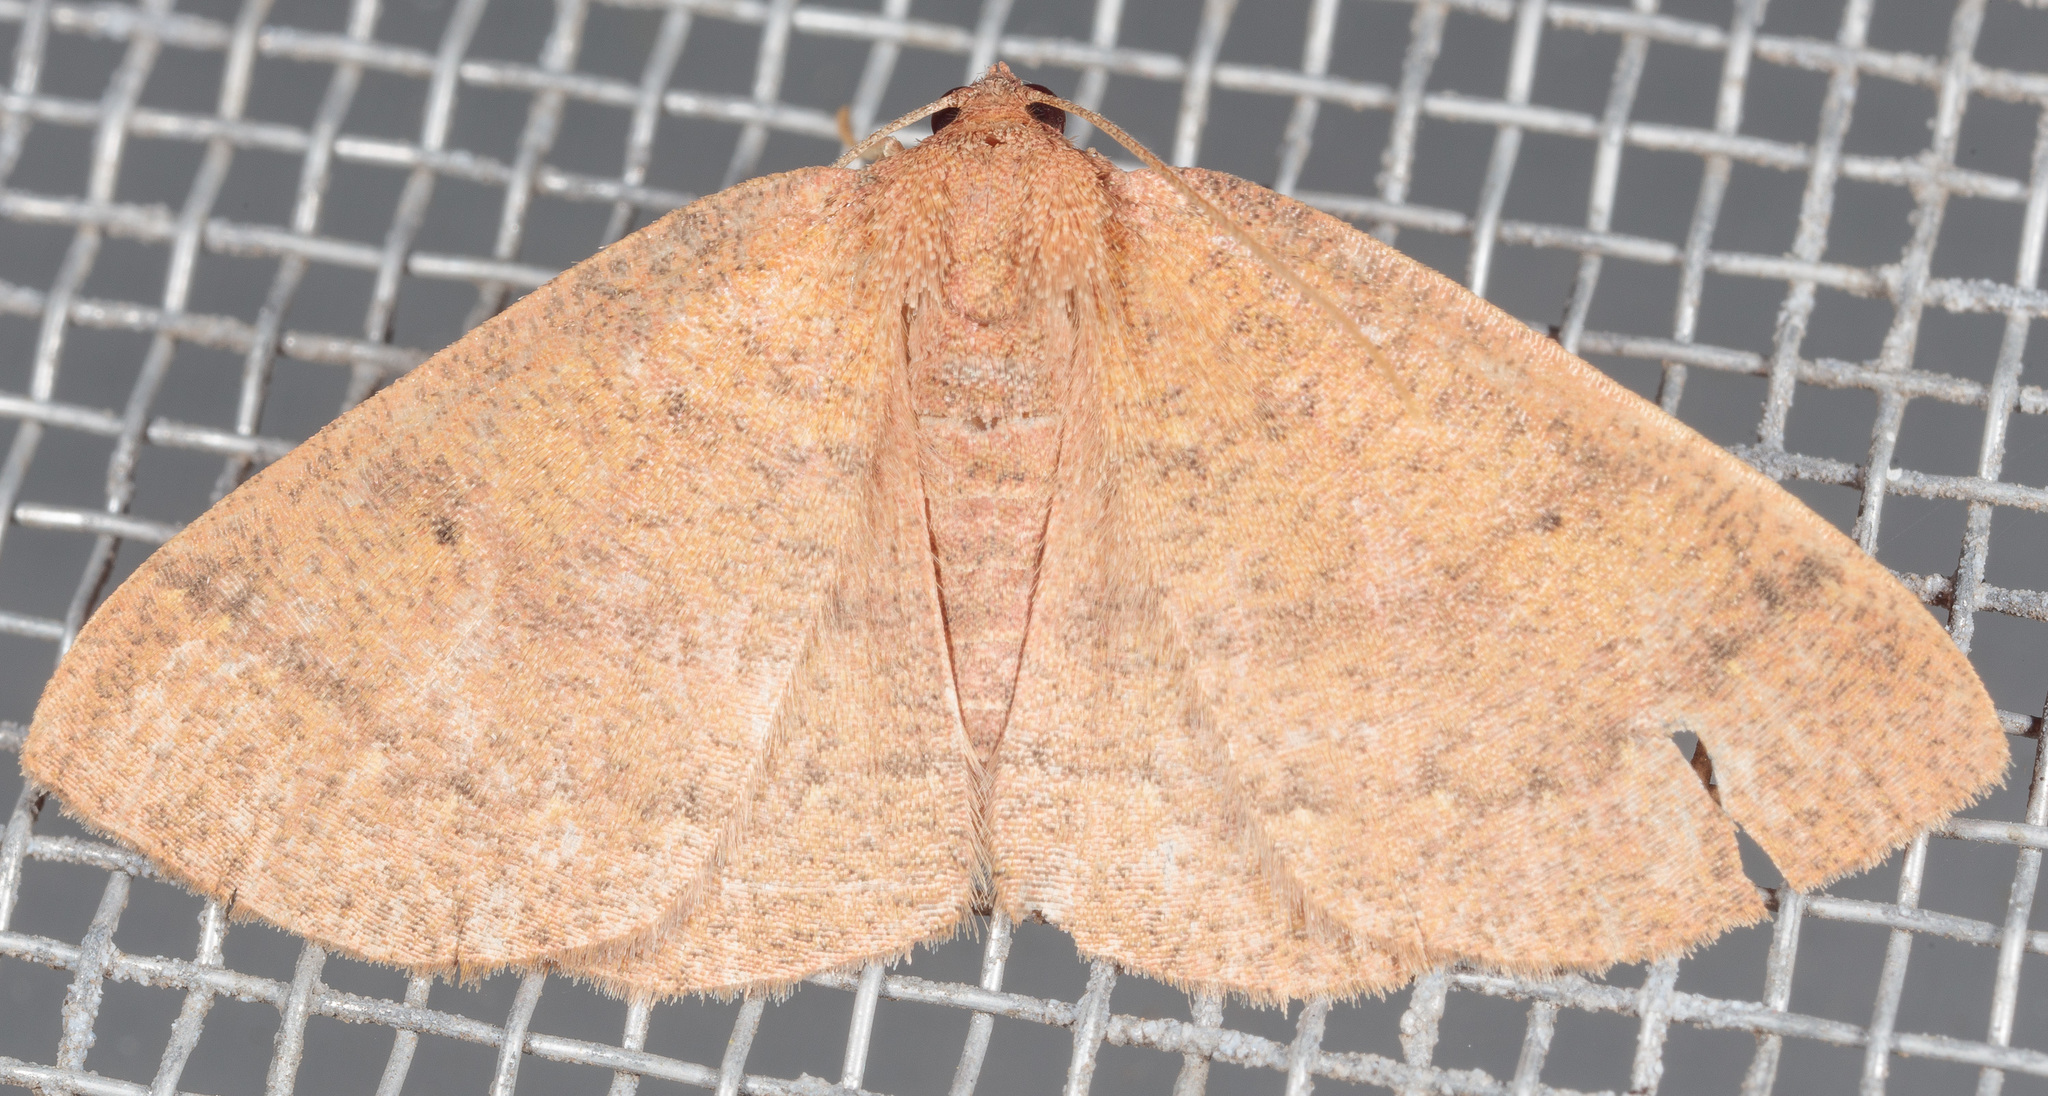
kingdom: Animalia
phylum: Arthropoda
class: Insecta
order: Lepidoptera
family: Geometridae
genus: Ilexia
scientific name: Ilexia intractata
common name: Black-dotted ruddy moth
